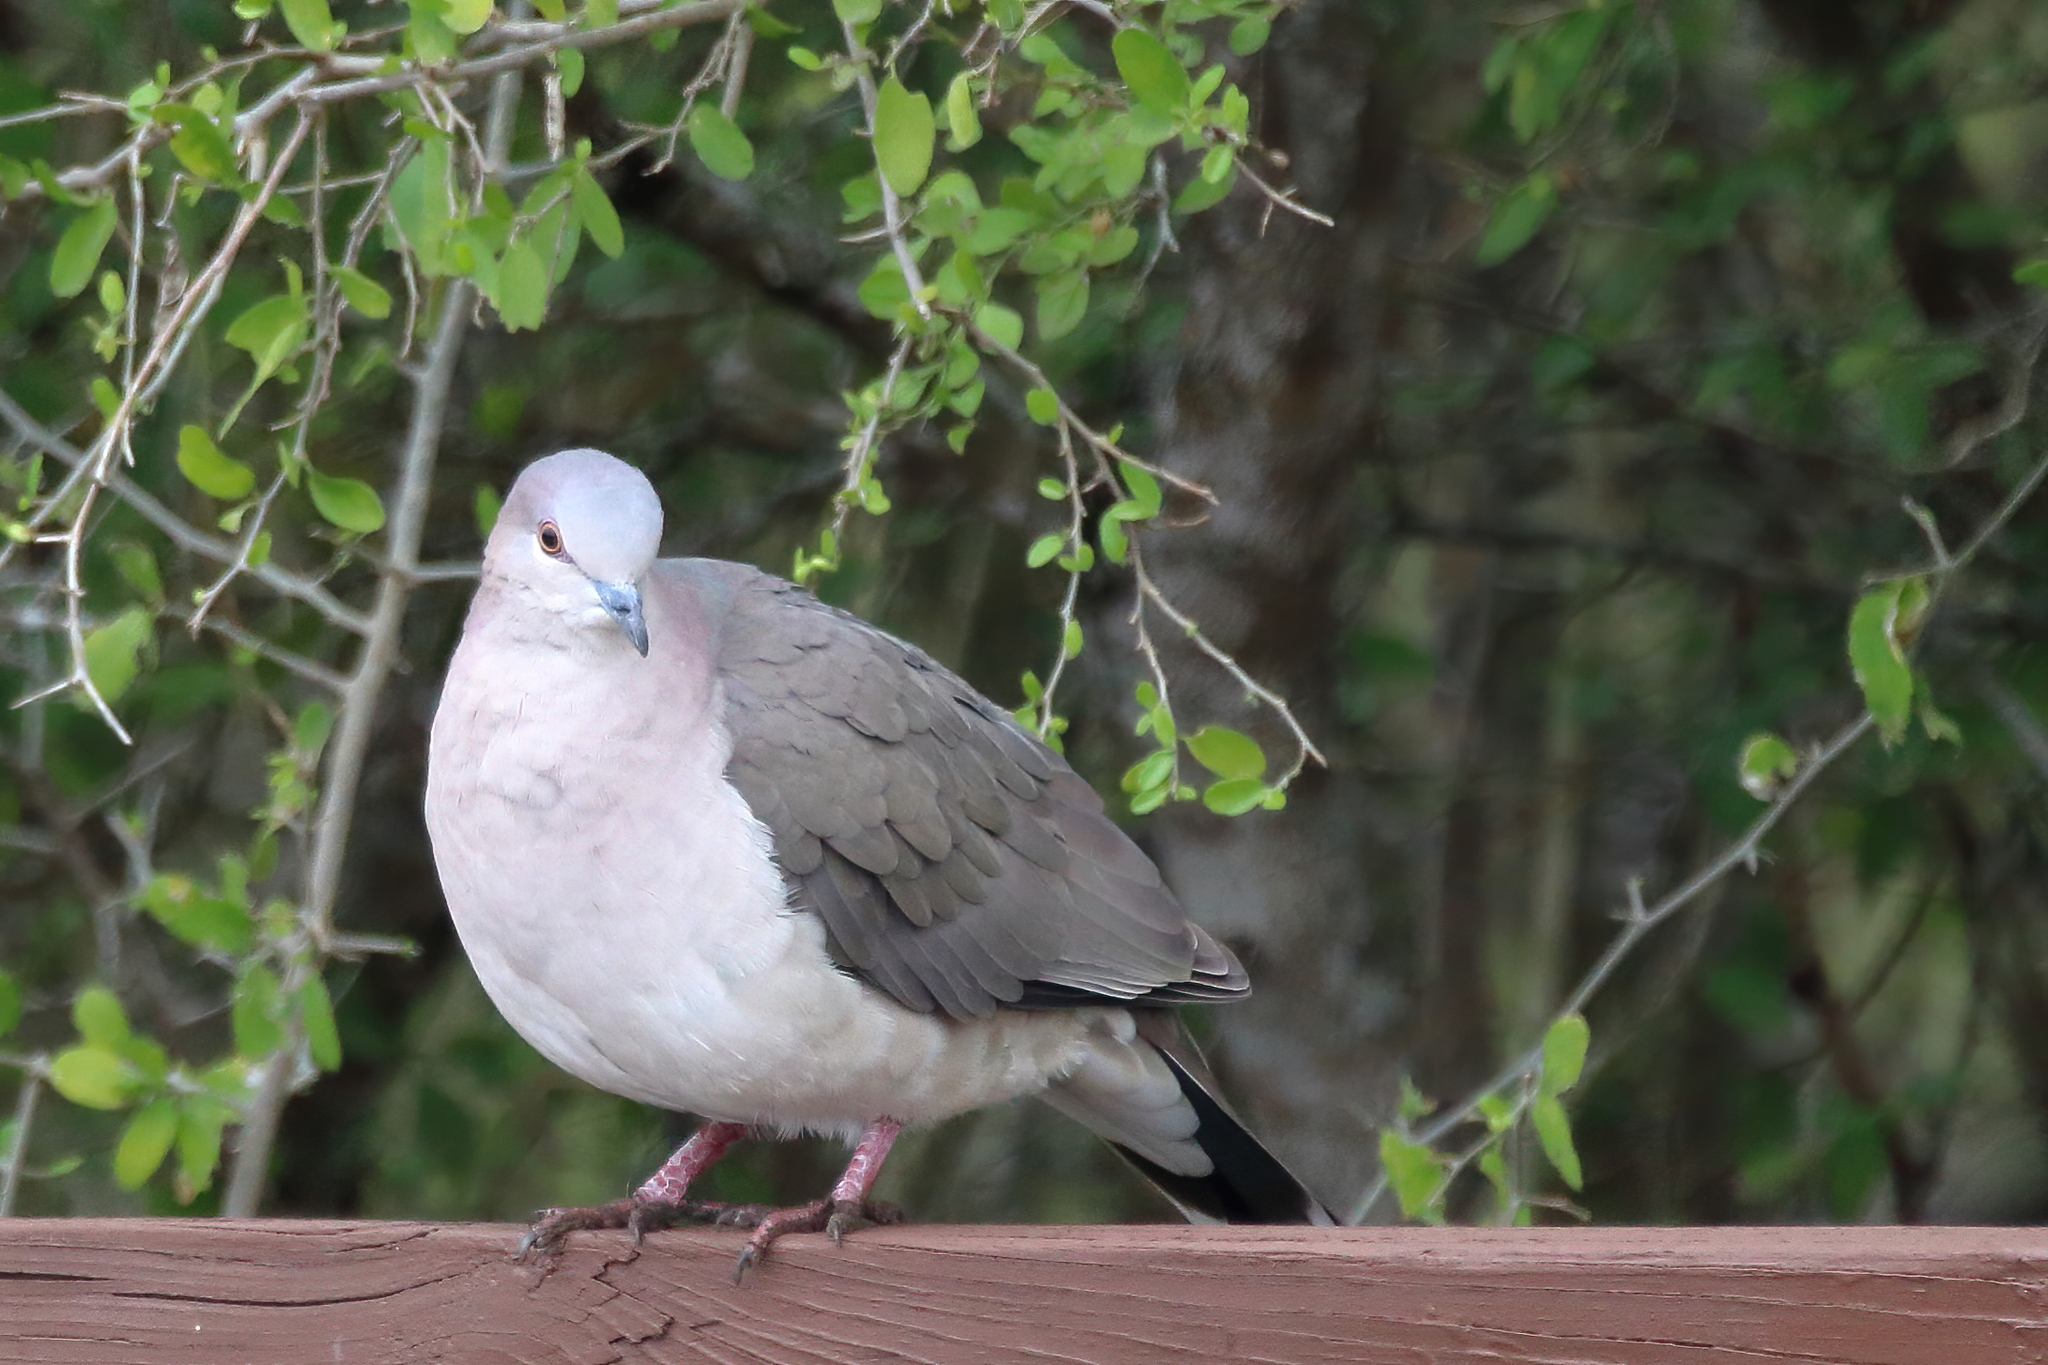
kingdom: Animalia
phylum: Chordata
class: Aves
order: Columbiformes
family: Columbidae
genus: Leptotila
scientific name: Leptotila verreauxi
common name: White-tipped dove
